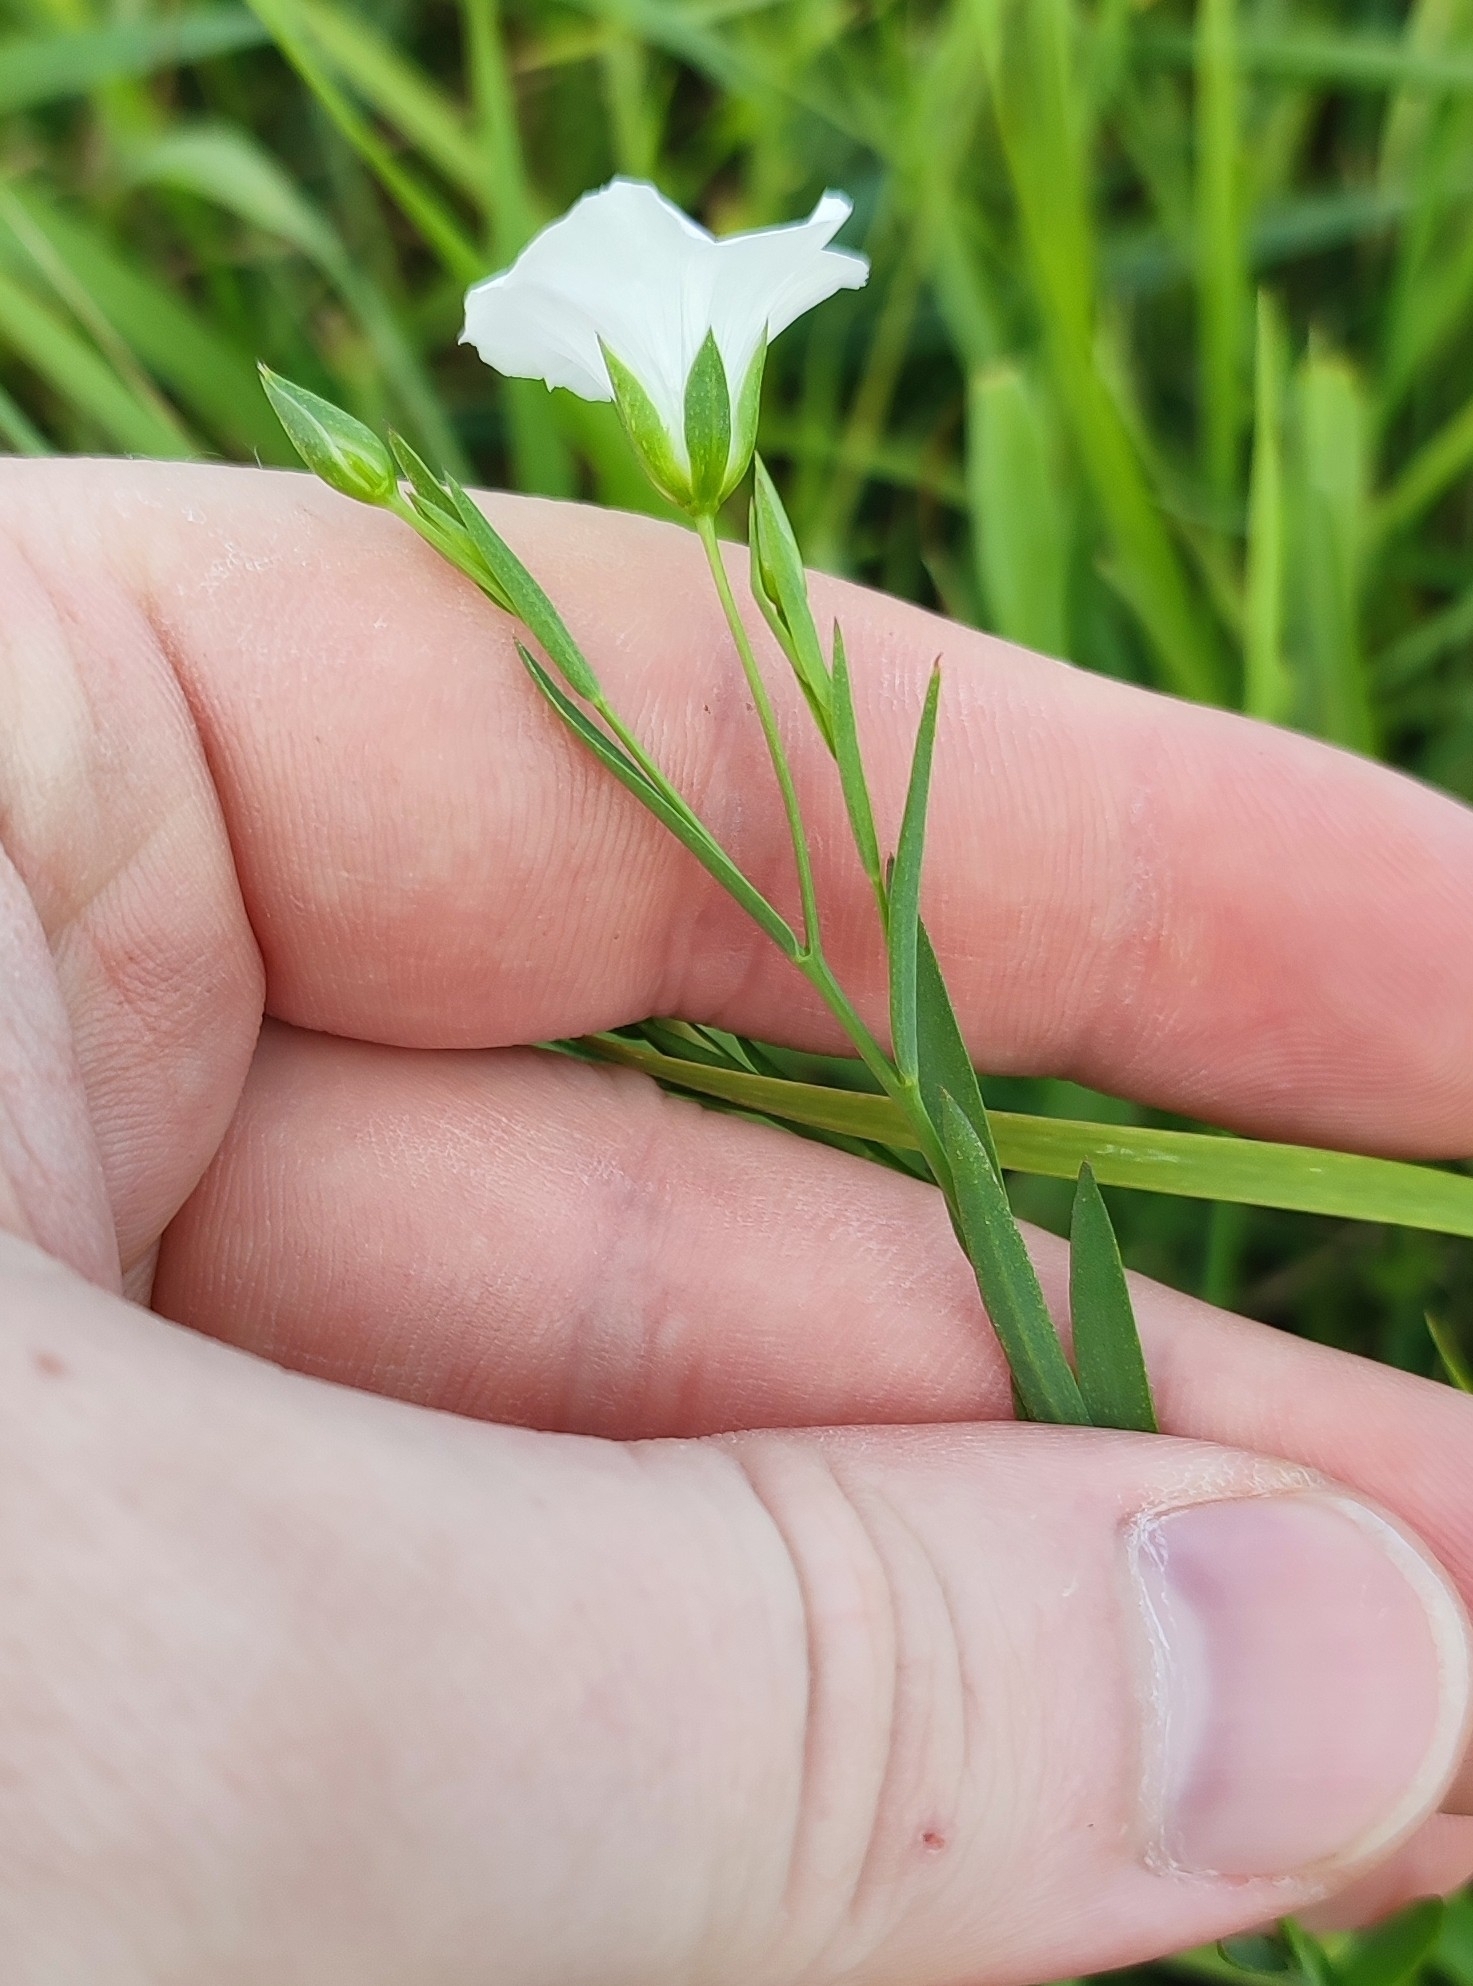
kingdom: Plantae
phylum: Tracheophyta
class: Magnoliopsida
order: Malpighiales
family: Linaceae
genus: Linum
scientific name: Linum usitatissimum
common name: Flax
